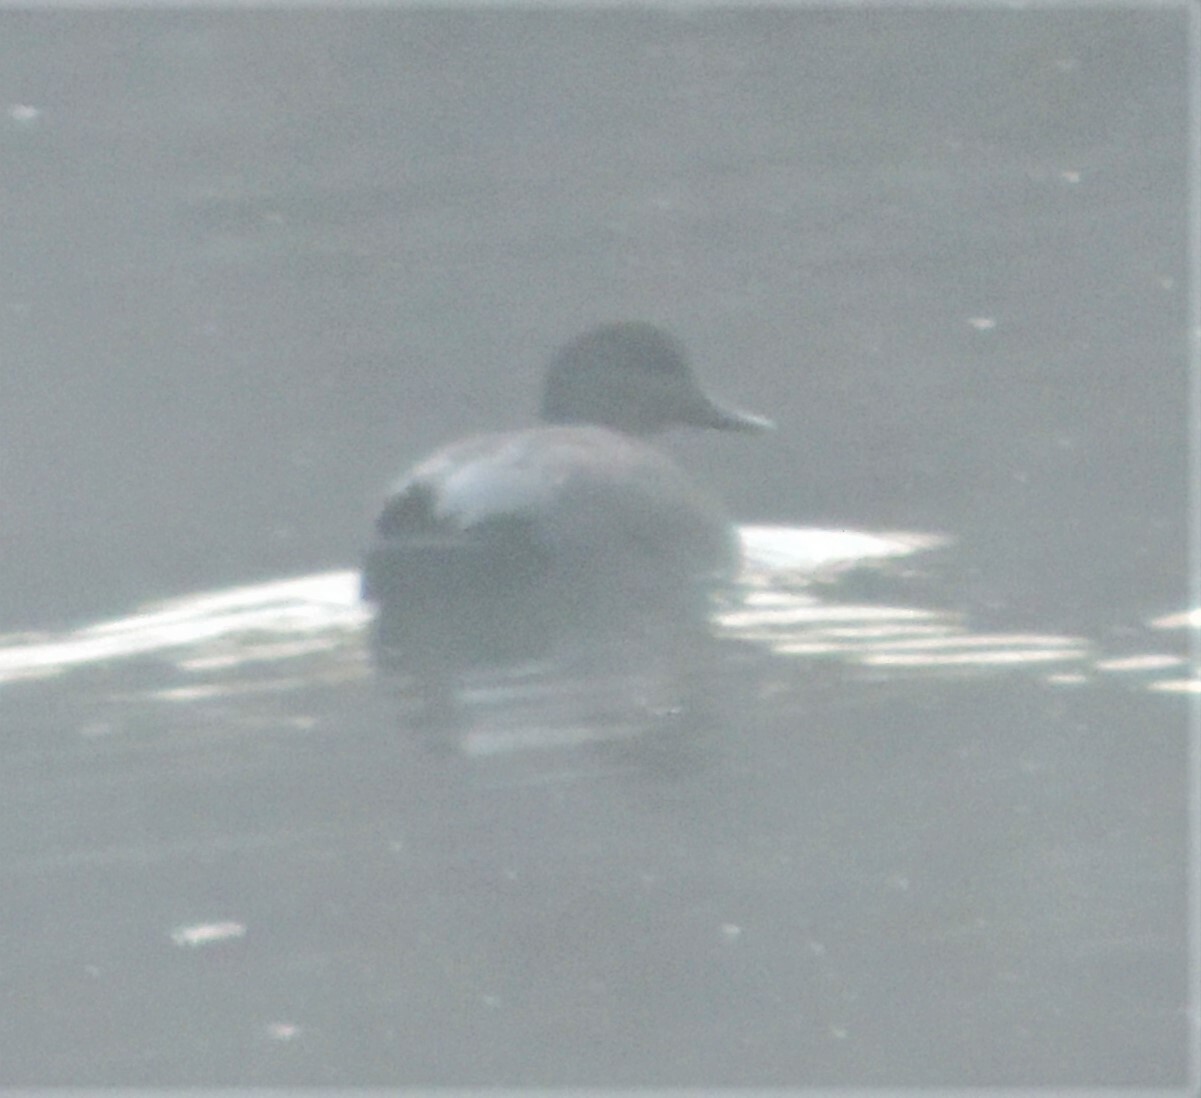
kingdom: Animalia
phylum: Chordata
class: Aves
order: Anseriformes
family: Anatidae
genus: Mareca
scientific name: Mareca strepera
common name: Gadwall
